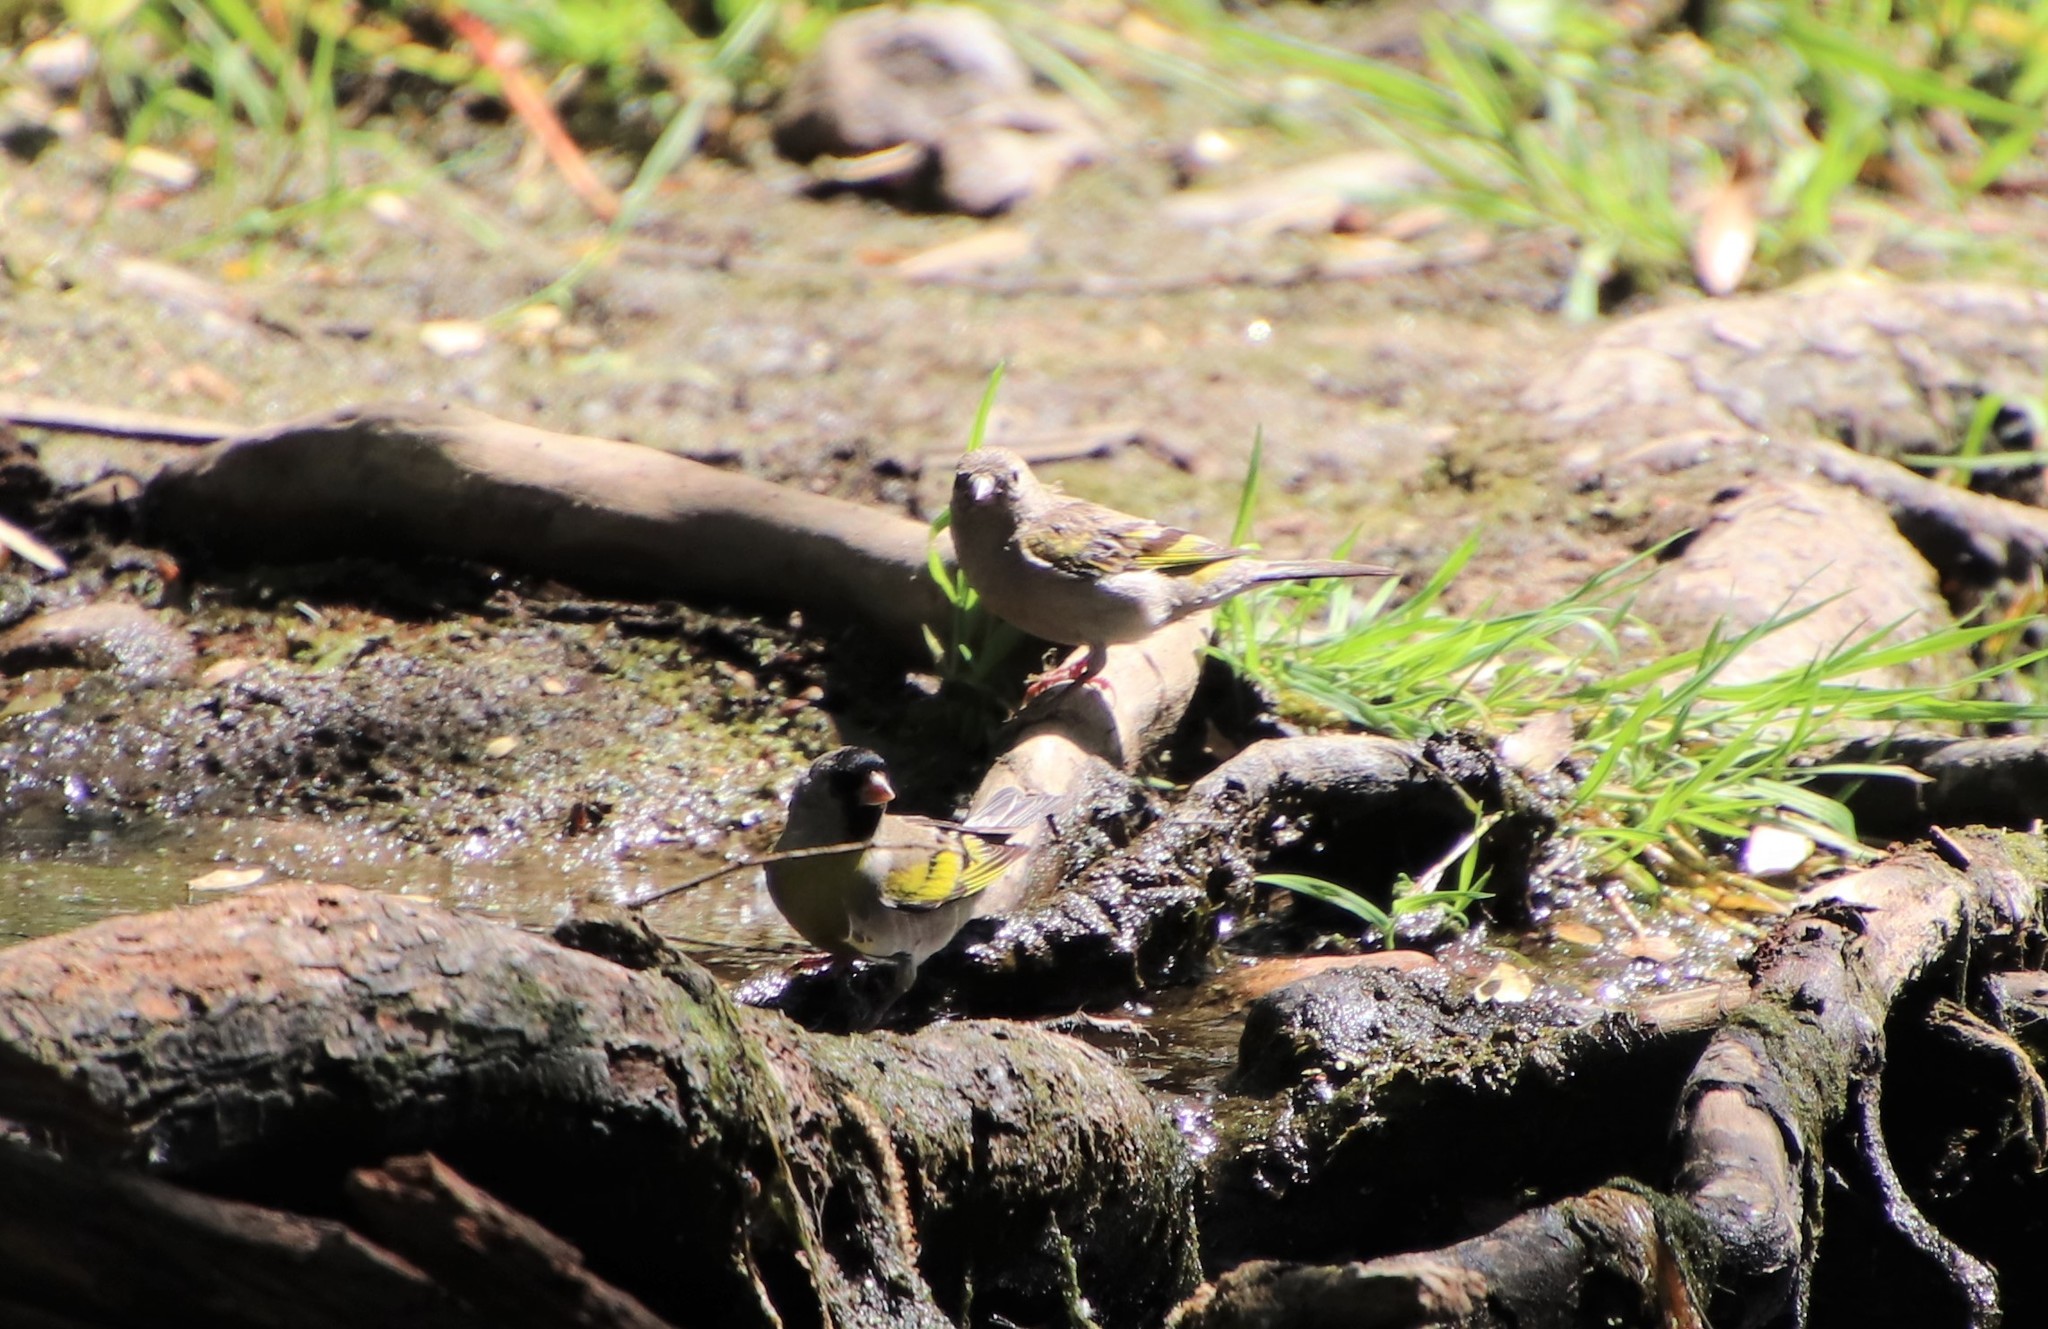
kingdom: Animalia
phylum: Chordata
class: Aves
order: Passeriformes
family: Fringillidae
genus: Spinus
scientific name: Spinus lawrencei
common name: Lawrence's goldfinch
